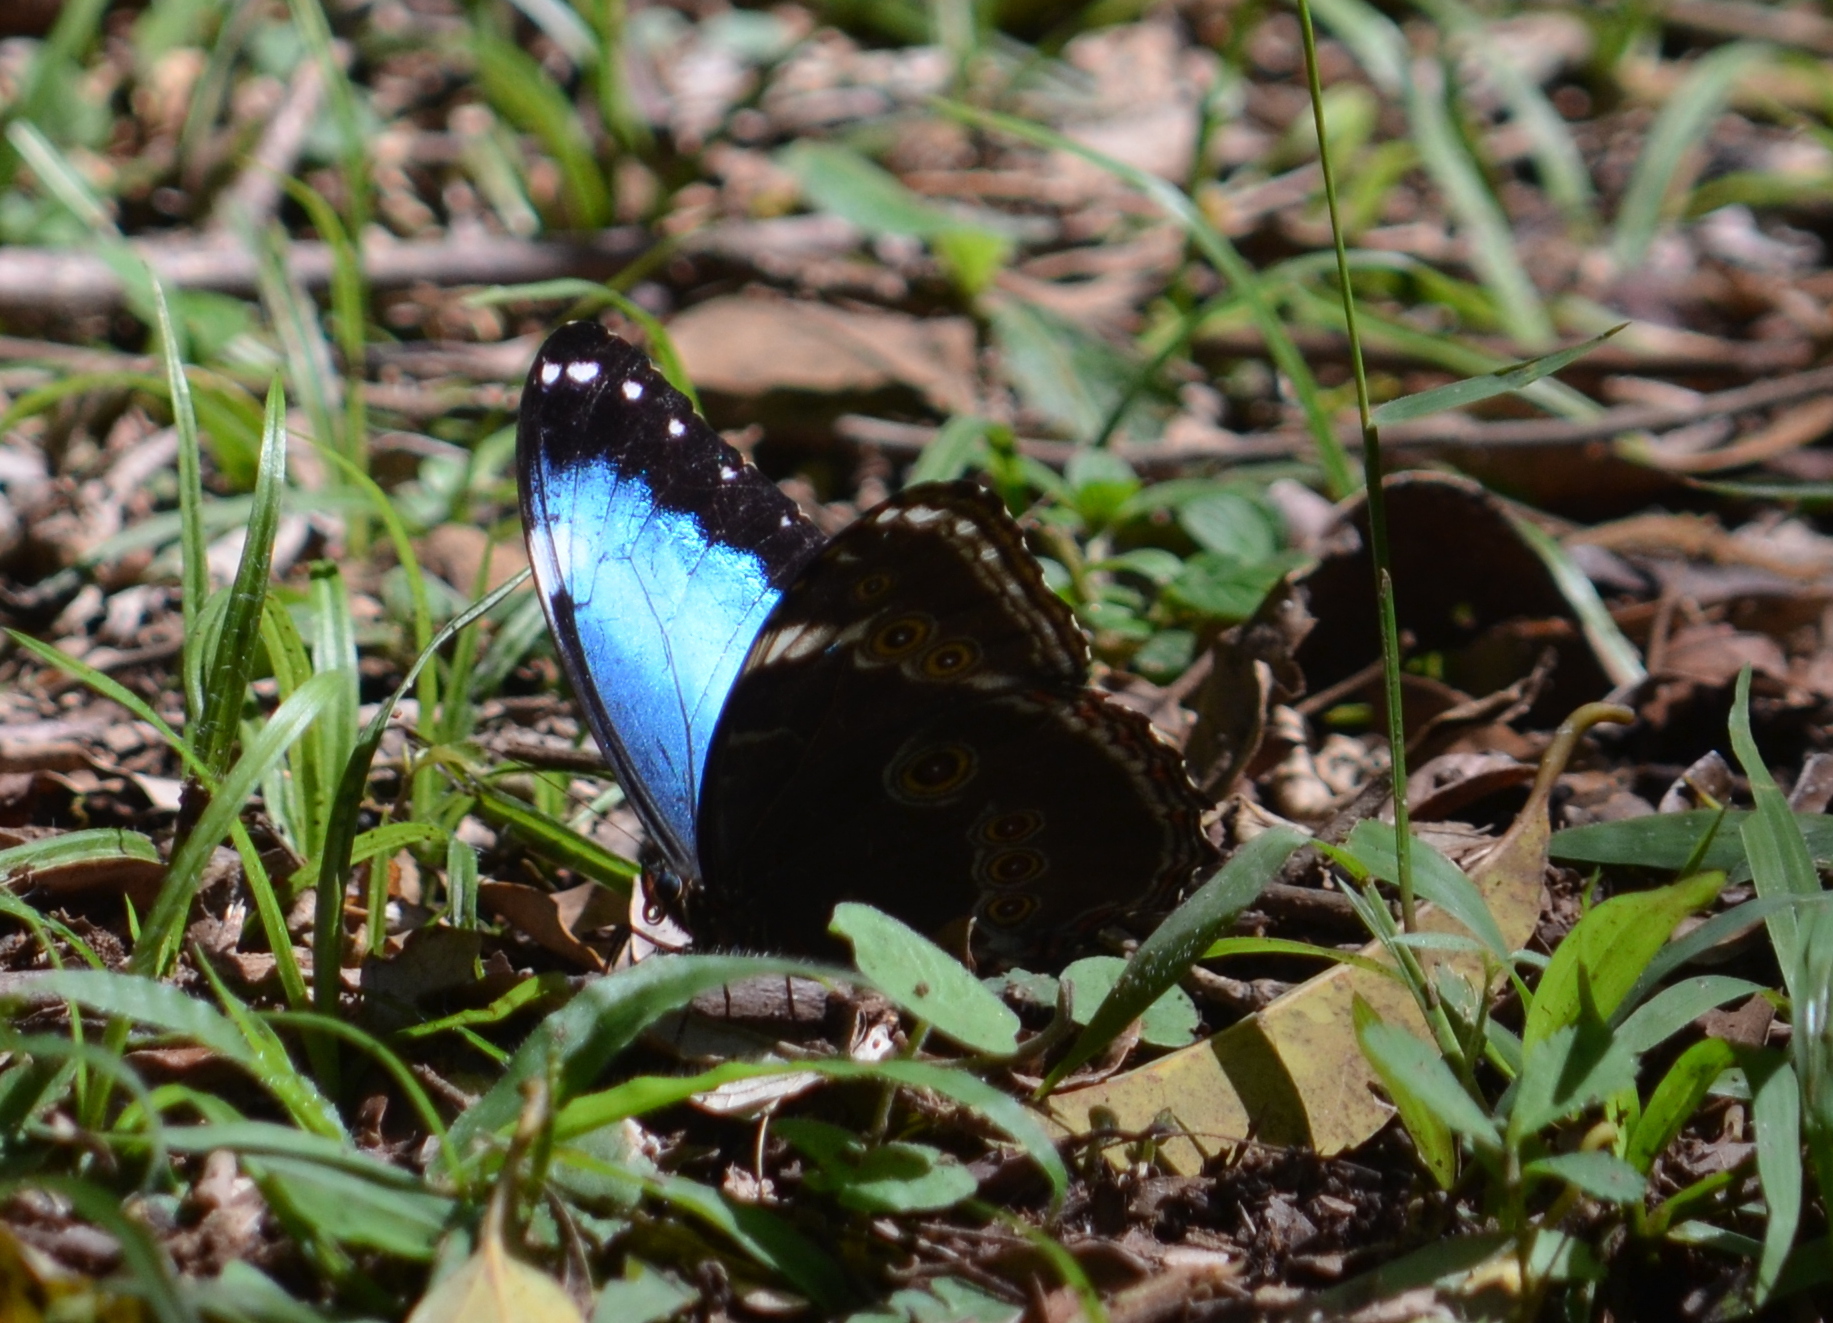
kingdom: Animalia
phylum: Arthropoda
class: Insecta
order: Lepidoptera
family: Nymphalidae
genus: Morpho
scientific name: Morpho helenor
